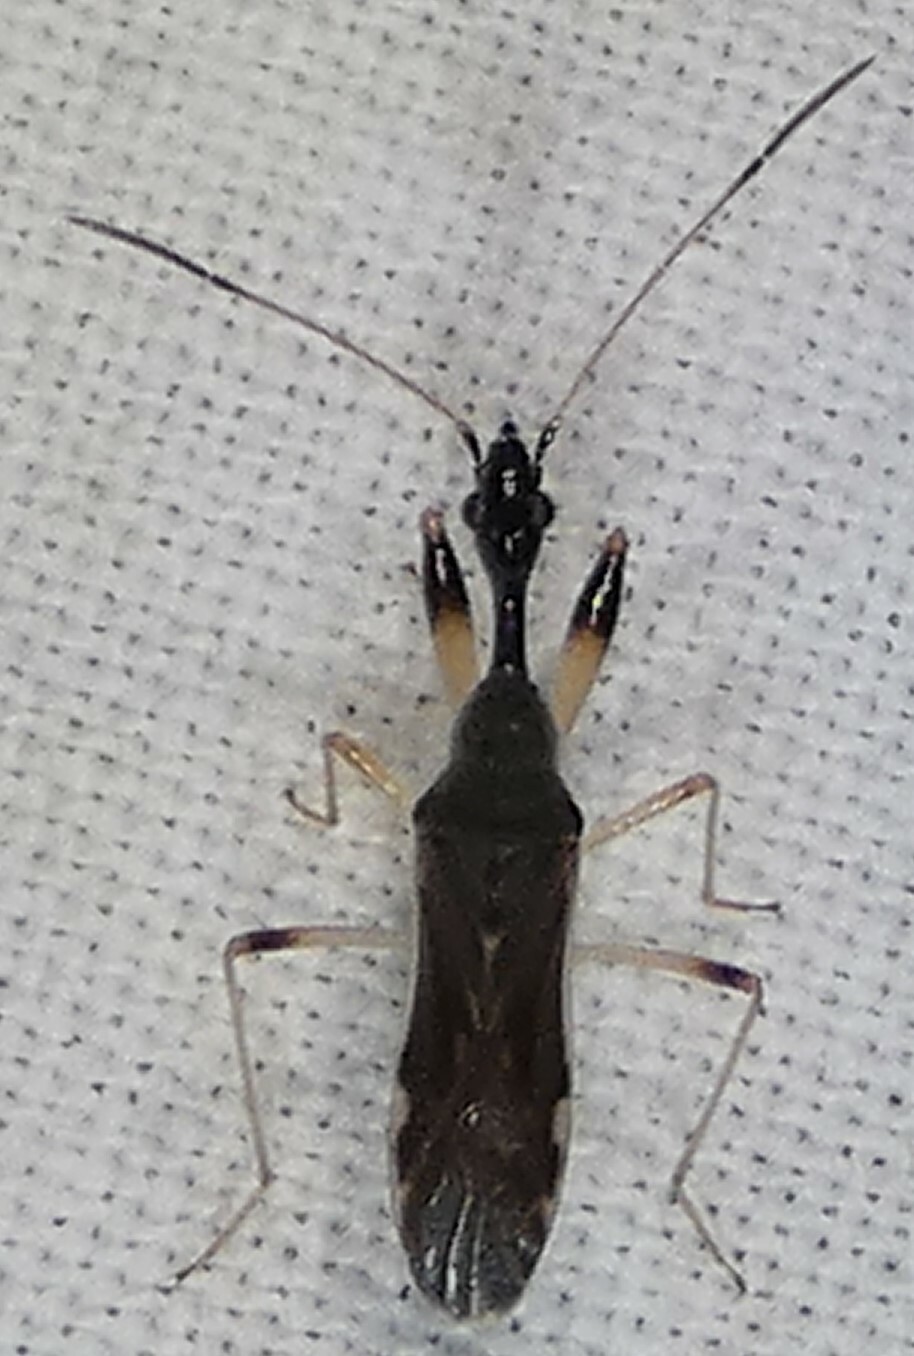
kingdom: Animalia
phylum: Arthropoda
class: Insecta
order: Hemiptera
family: Rhyparochromidae
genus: Myodocha
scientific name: Myodocha serripes
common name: Long-necked seed bug
